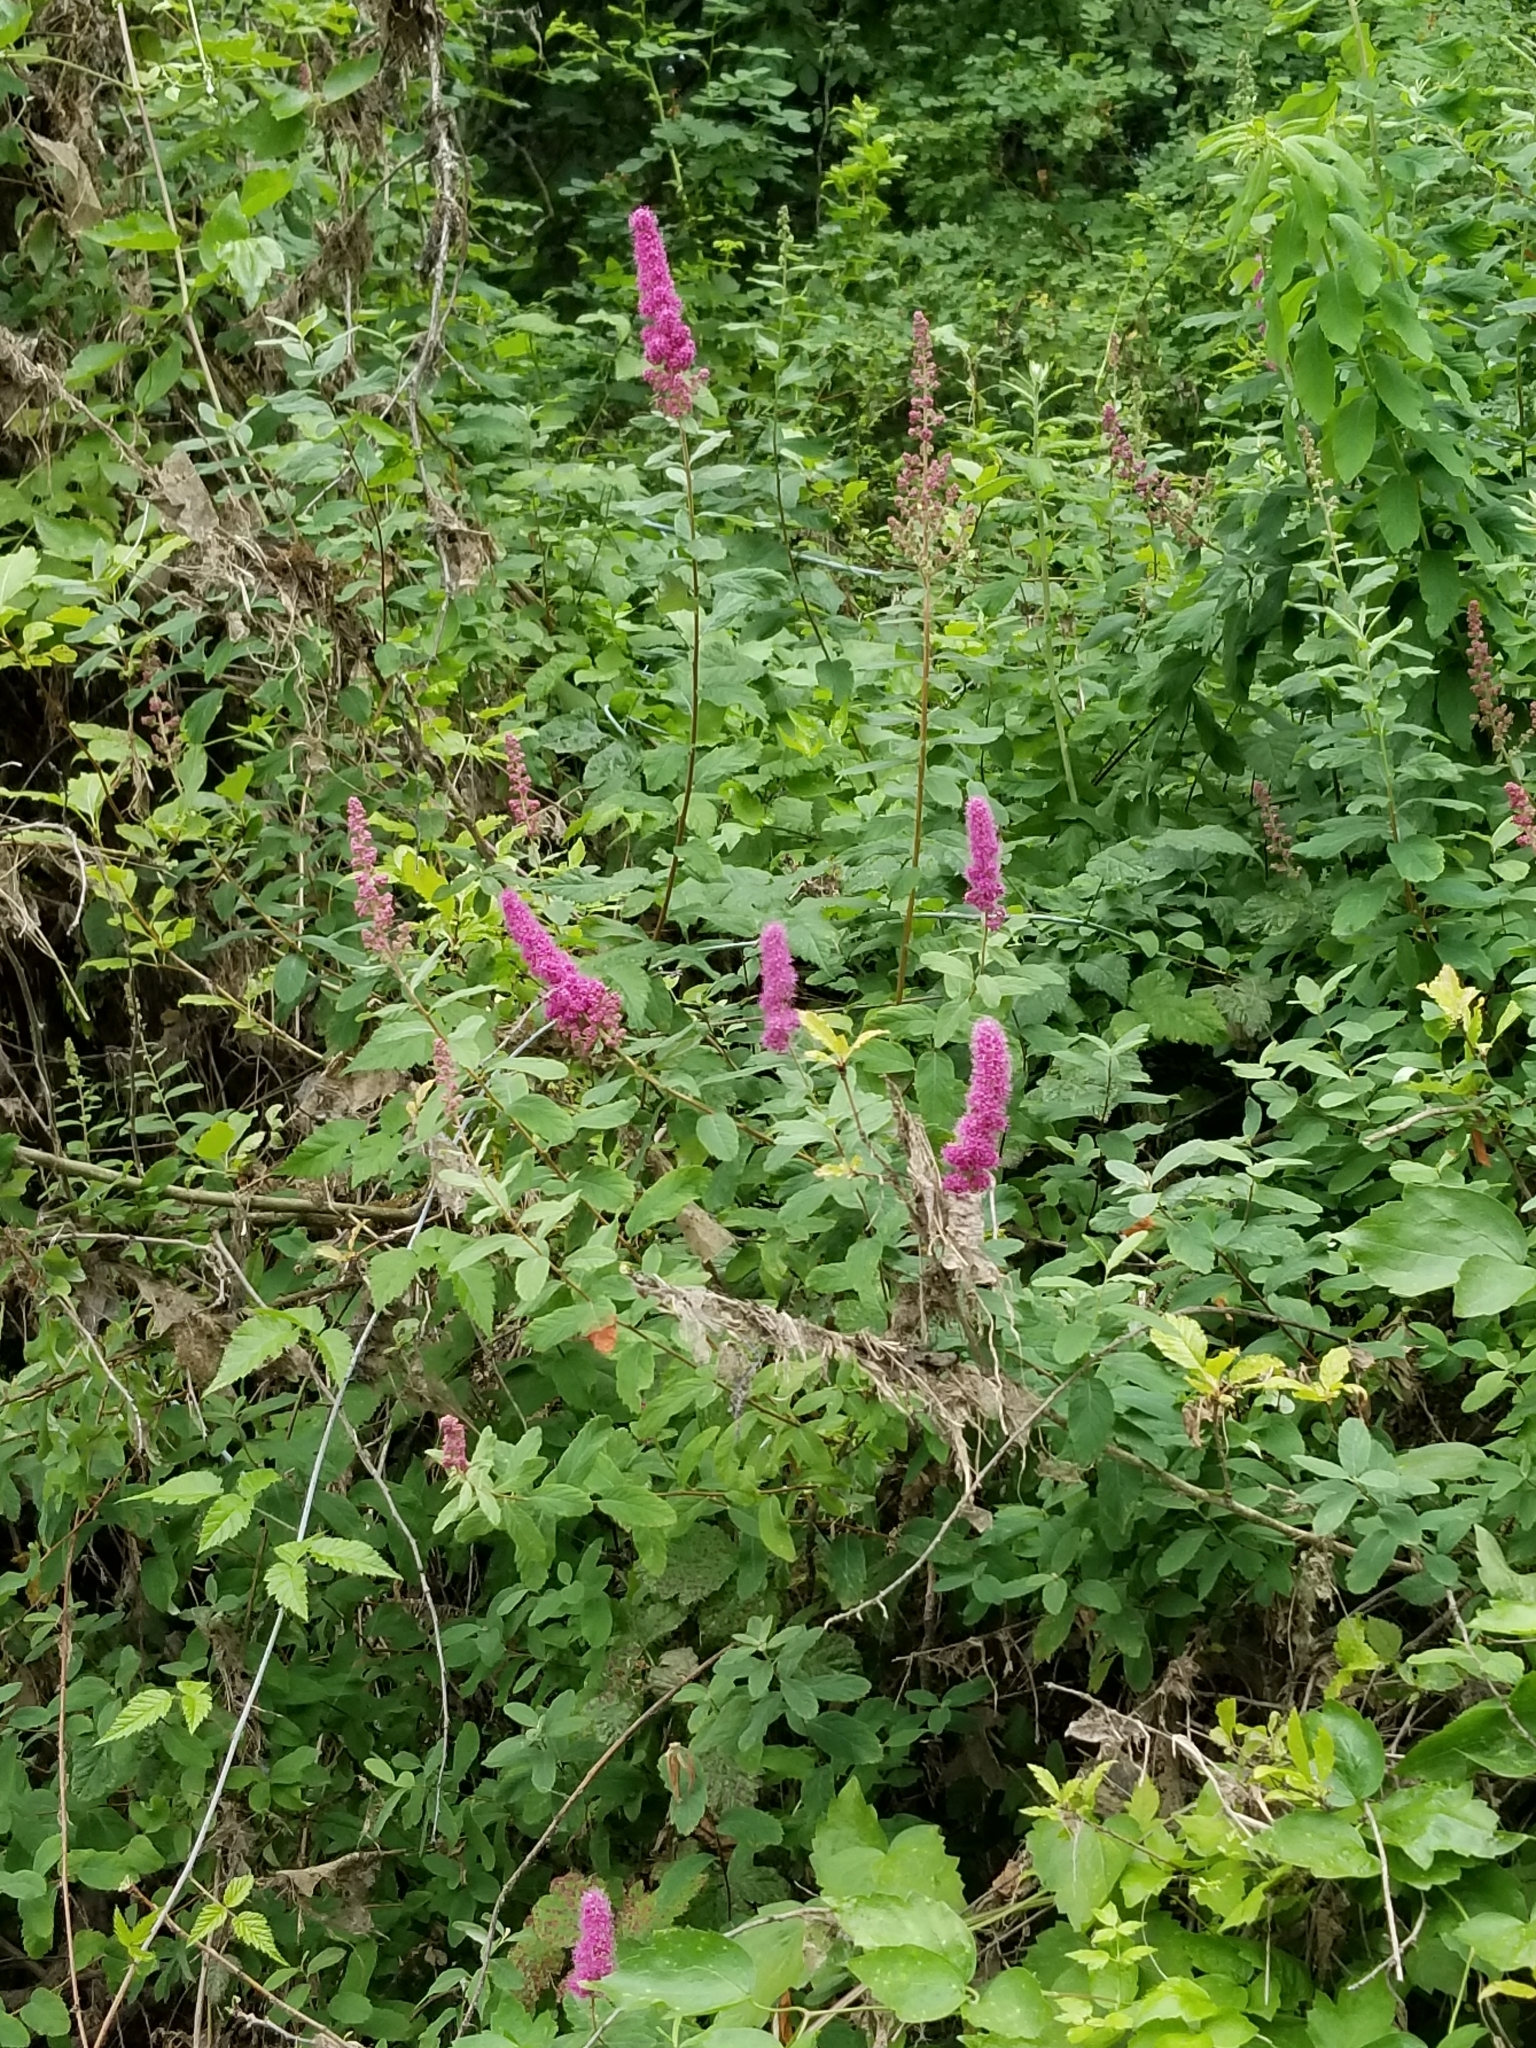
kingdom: Plantae
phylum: Tracheophyta
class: Magnoliopsida
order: Rosales
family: Rosaceae
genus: Spiraea
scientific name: Spiraea douglasii
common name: Steeplebush
